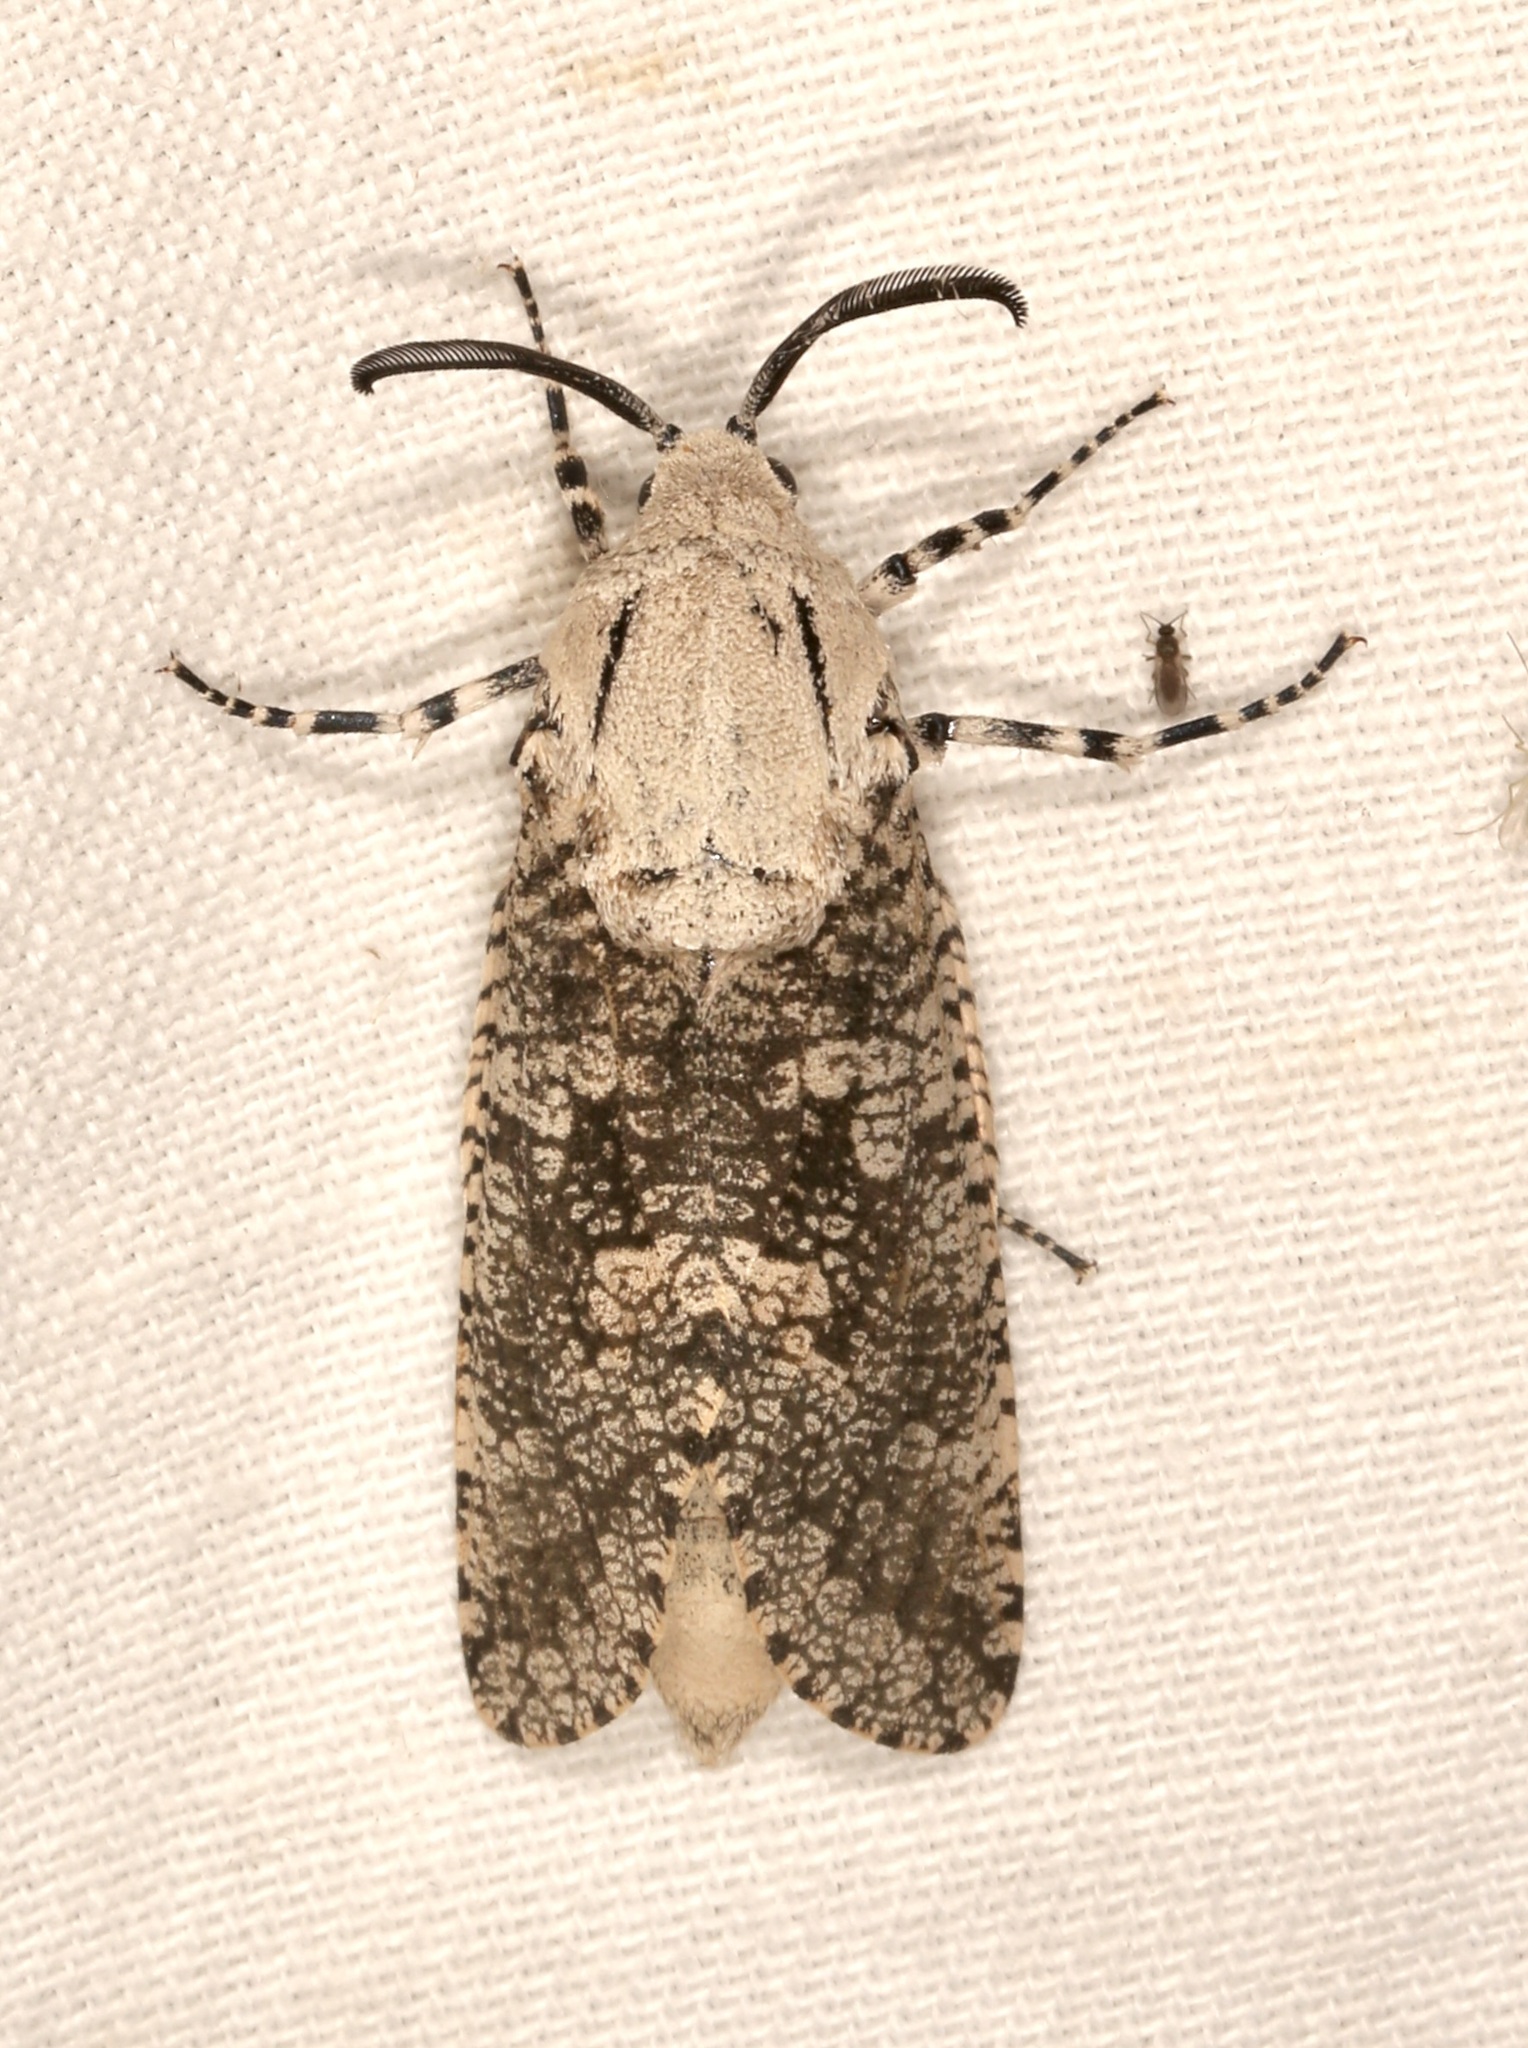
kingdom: Animalia
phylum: Arthropoda
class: Insecta
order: Lepidoptera
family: Cossidae
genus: Prionoxystus
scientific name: Prionoxystus robiniae
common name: Carpenterworm
